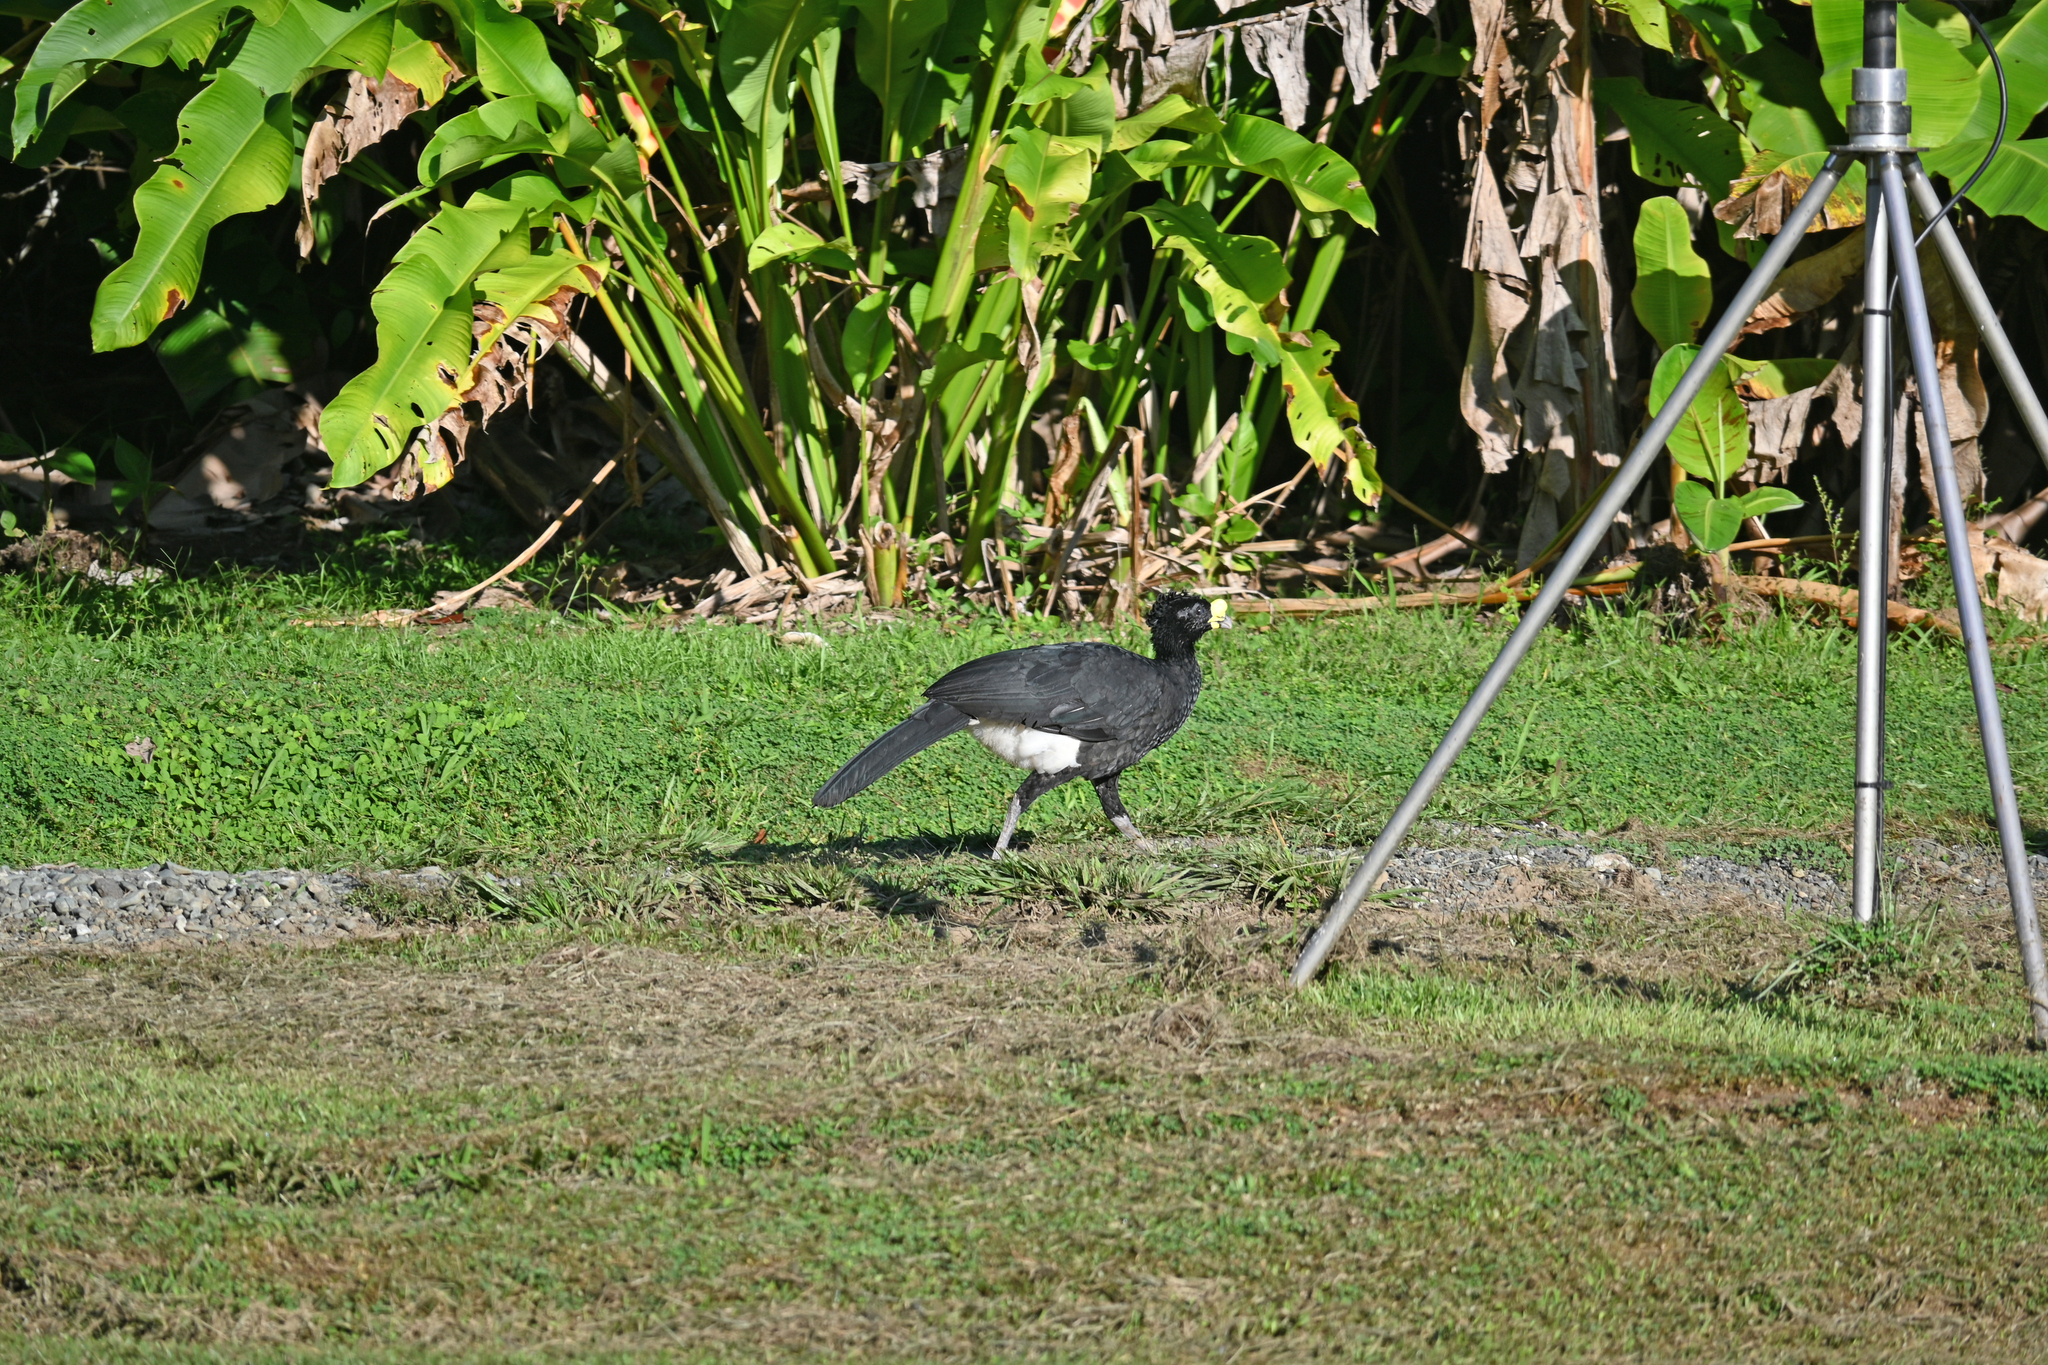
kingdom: Animalia
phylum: Chordata
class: Aves
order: Galliformes
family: Cracidae
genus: Crax
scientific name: Crax rubra
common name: Great curassow
